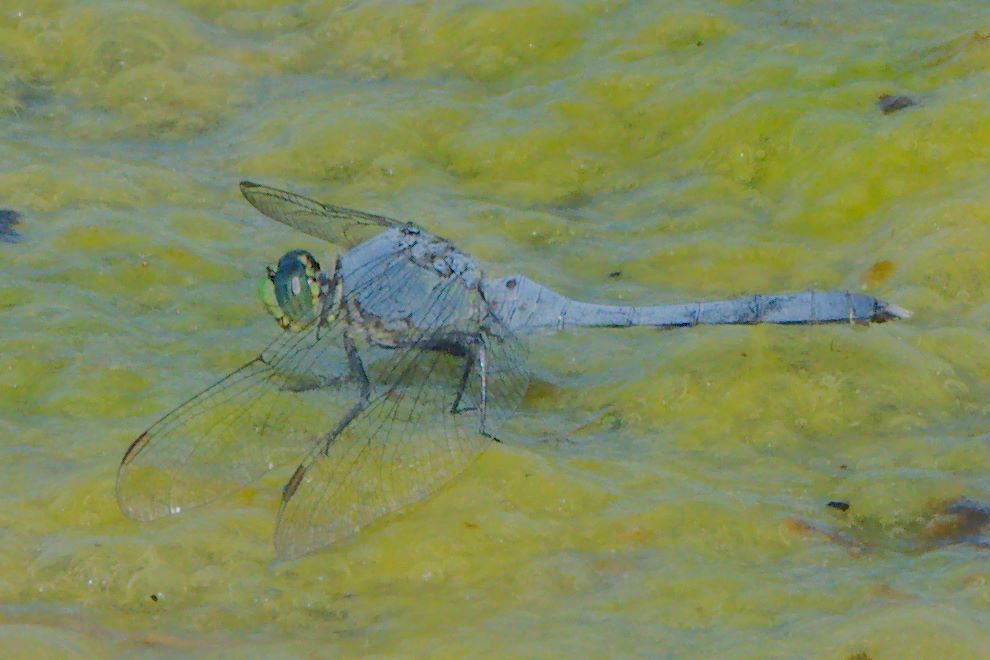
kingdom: Animalia
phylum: Arthropoda
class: Insecta
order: Odonata
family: Libellulidae
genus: Erythemis
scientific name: Erythemis simplicicollis
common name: Eastern pondhawk
